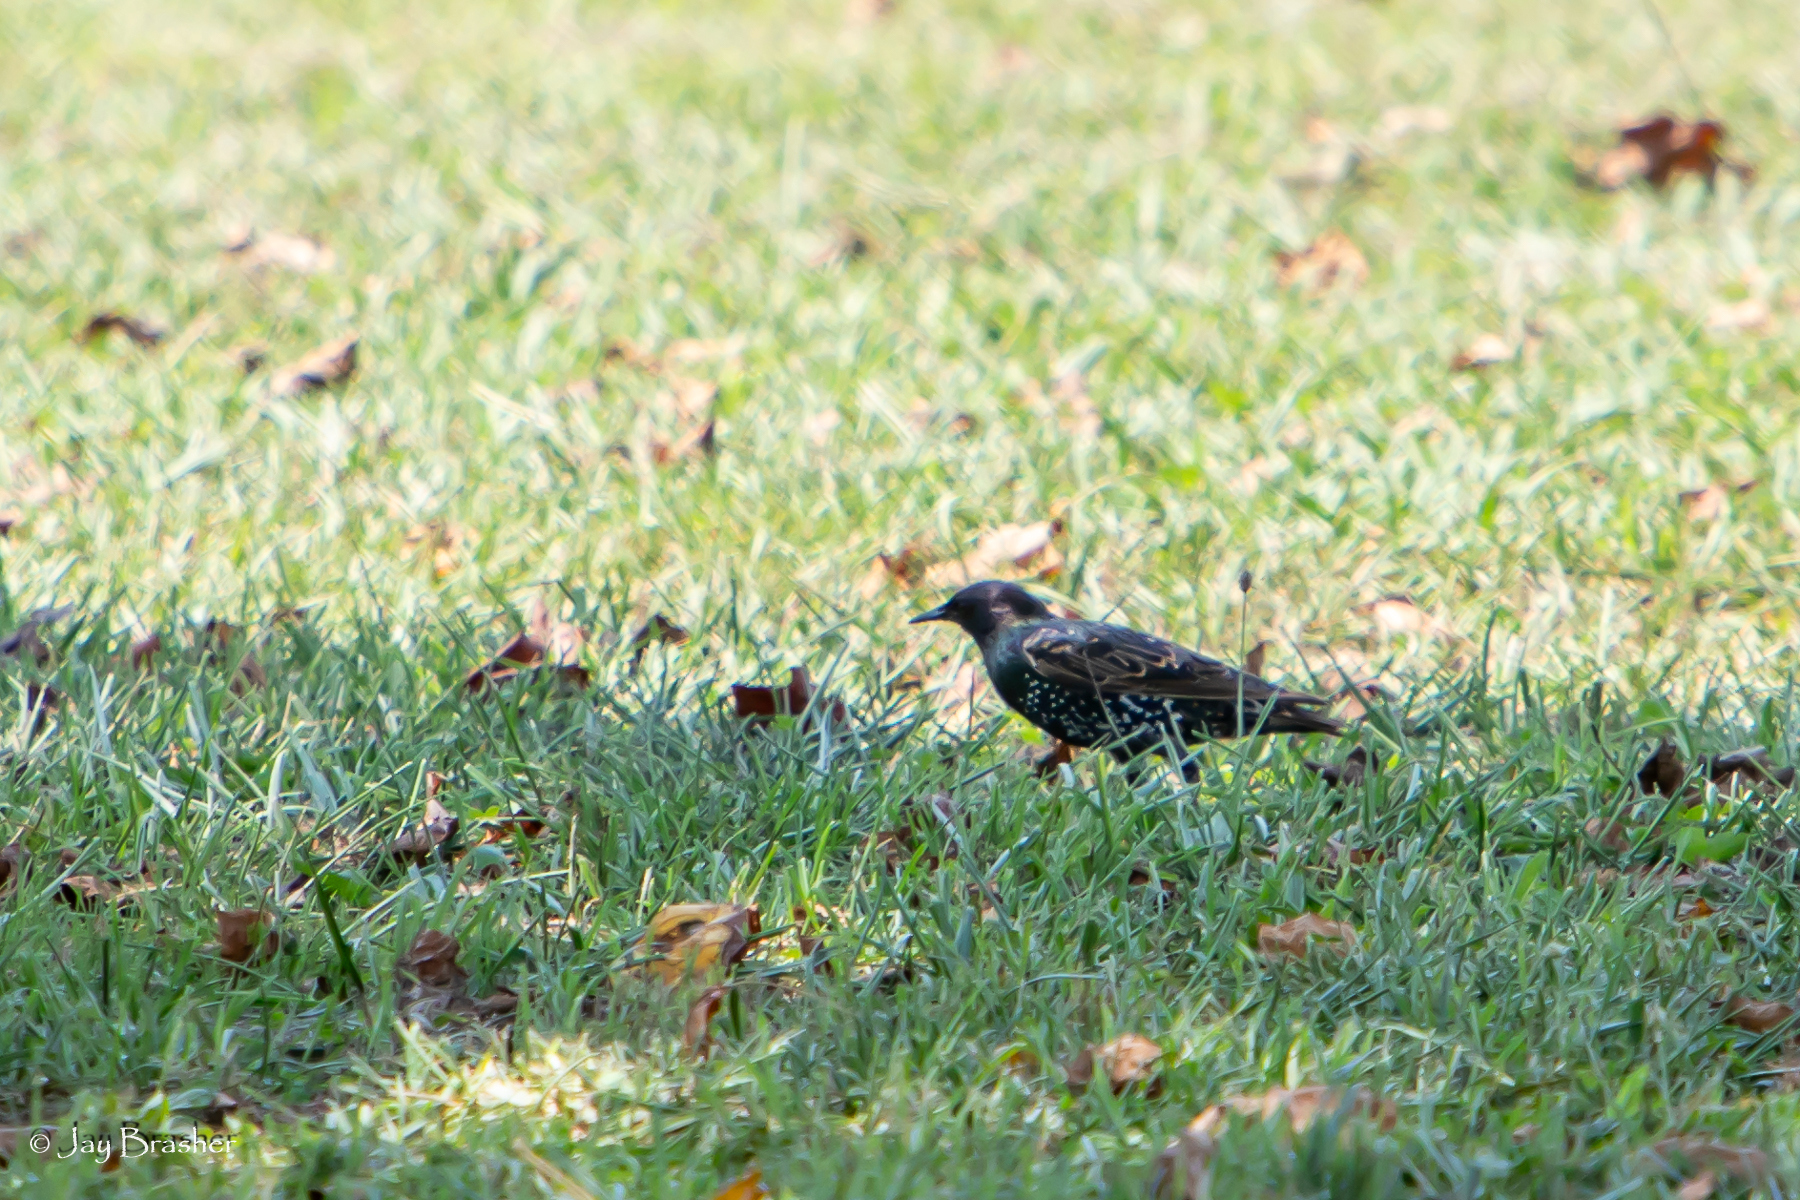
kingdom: Animalia
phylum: Chordata
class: Aves
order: Passeriformes
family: Sturnidae
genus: Sturnus
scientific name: Sturnus vulgaris
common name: Common starling
